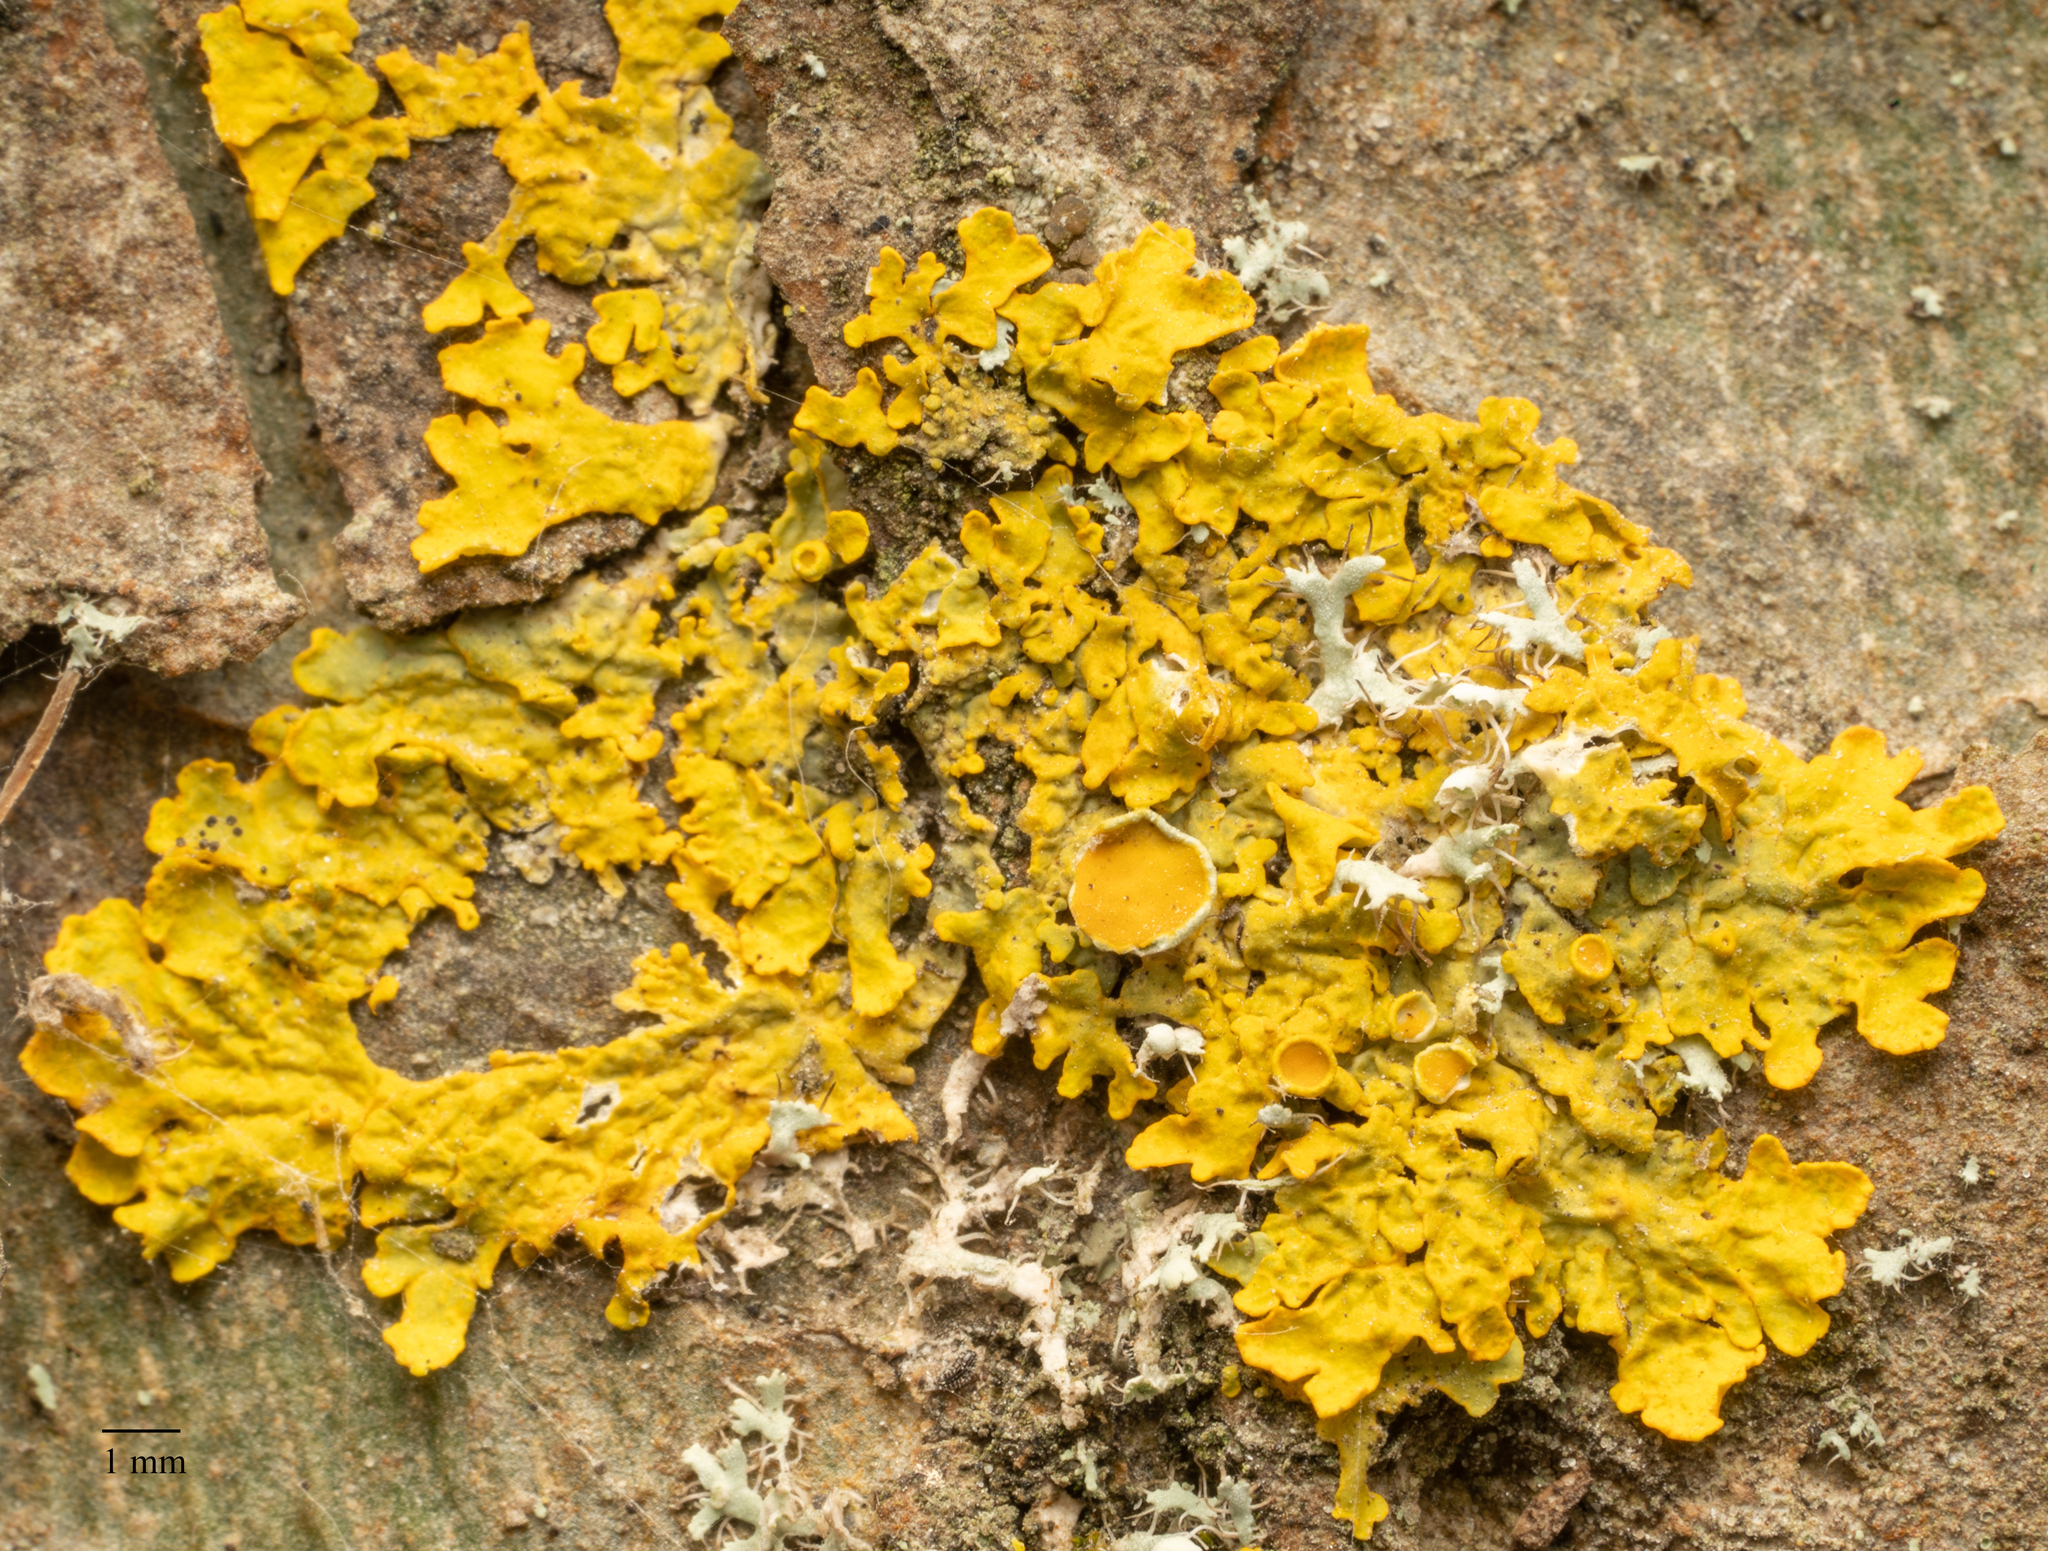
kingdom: Fungi
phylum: Ascomycota
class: Lecanoromycetes
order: Teloschistales
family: Teloschistaceae
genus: Xanthoria
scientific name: Xanthoria parietina
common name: Common orange lichen
